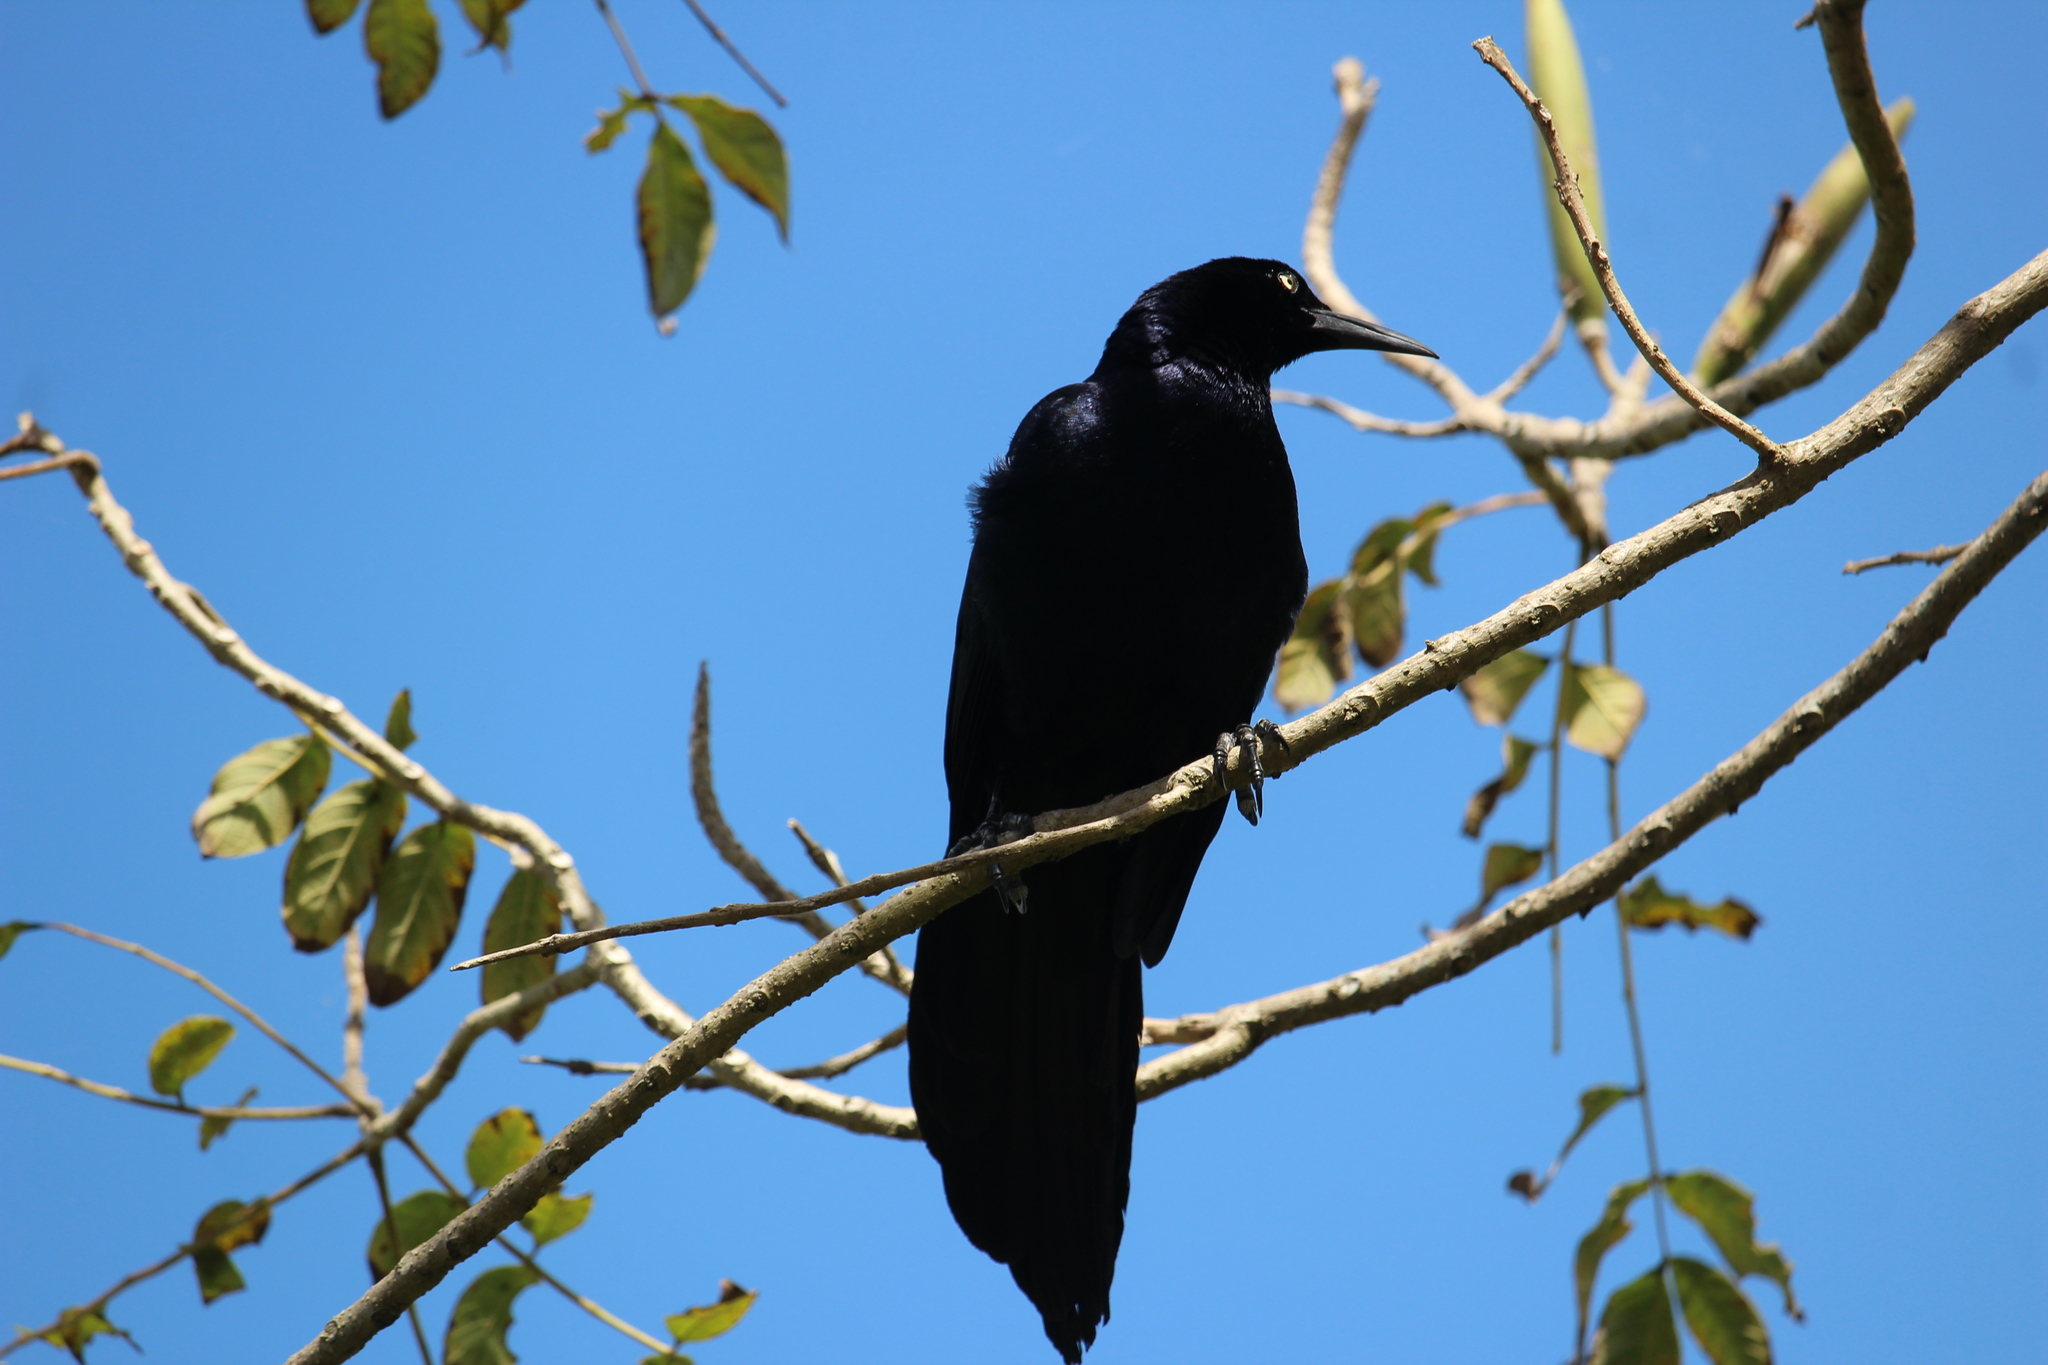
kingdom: Animalia
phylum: Chordata
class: Aves
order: Passeriformes
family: Icteridae
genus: Quiscalus
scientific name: Quiscalus mexicanus
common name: Great-tailed grackle
